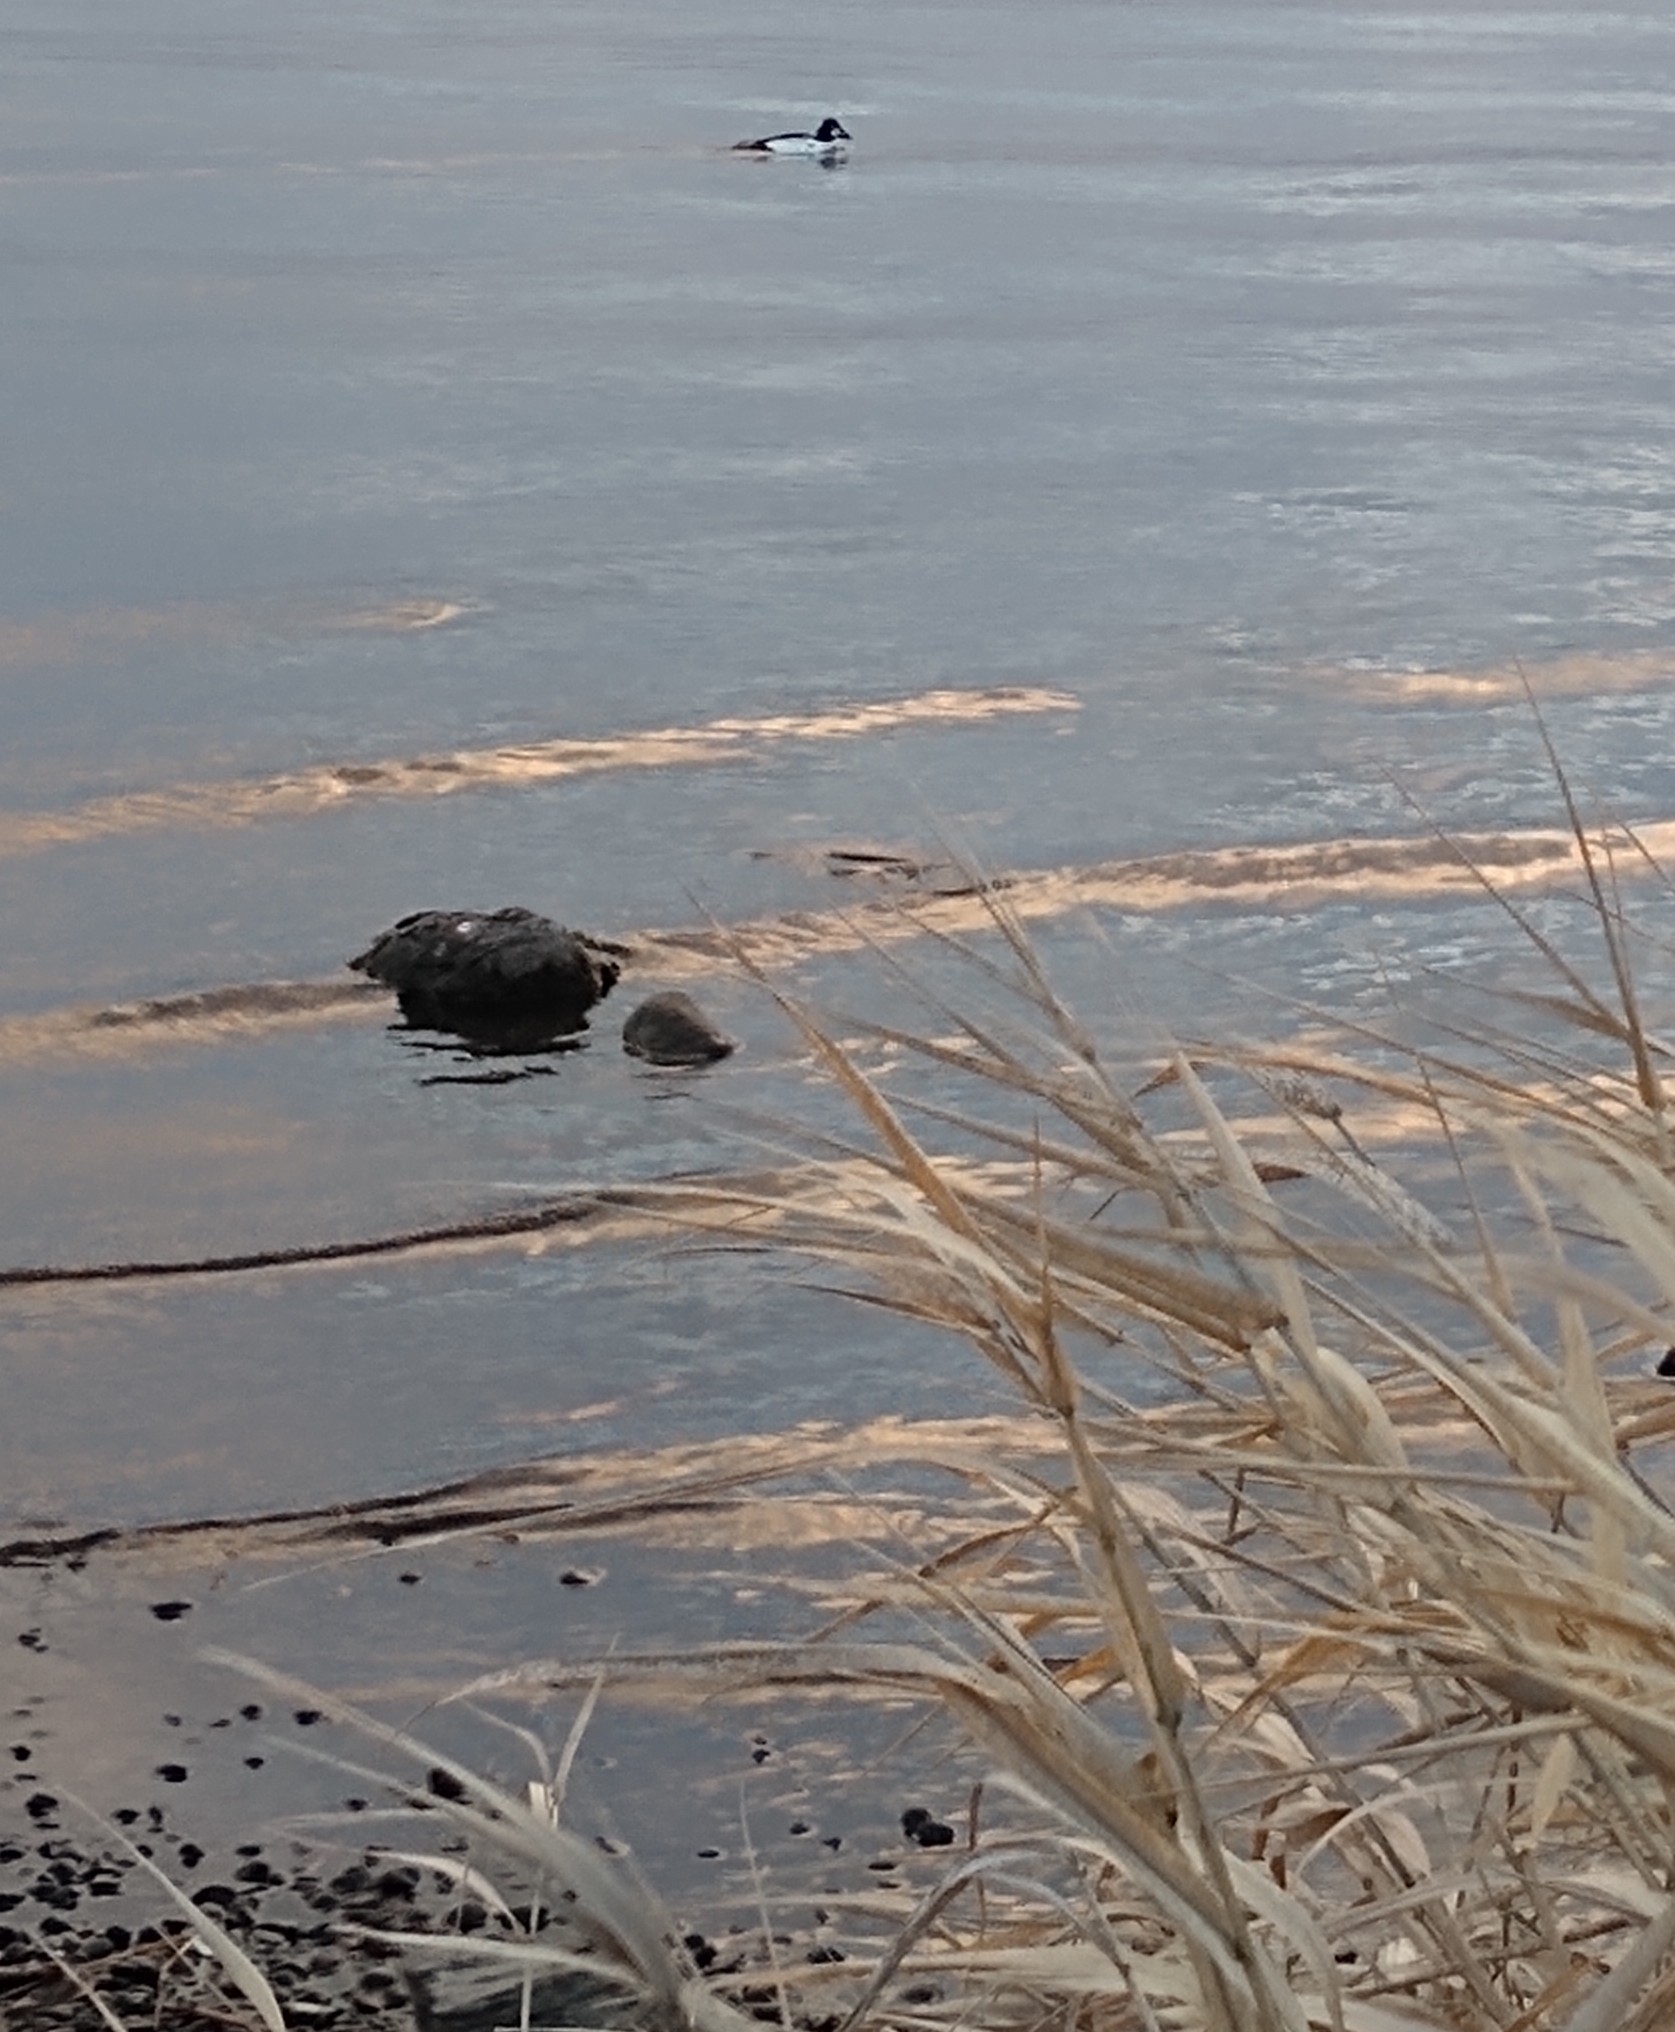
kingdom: Animalia
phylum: Chordata
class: Aves
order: Anseriformes
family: Anatidae
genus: Bucephala
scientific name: Bucephala clangula
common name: Common goldeneye
